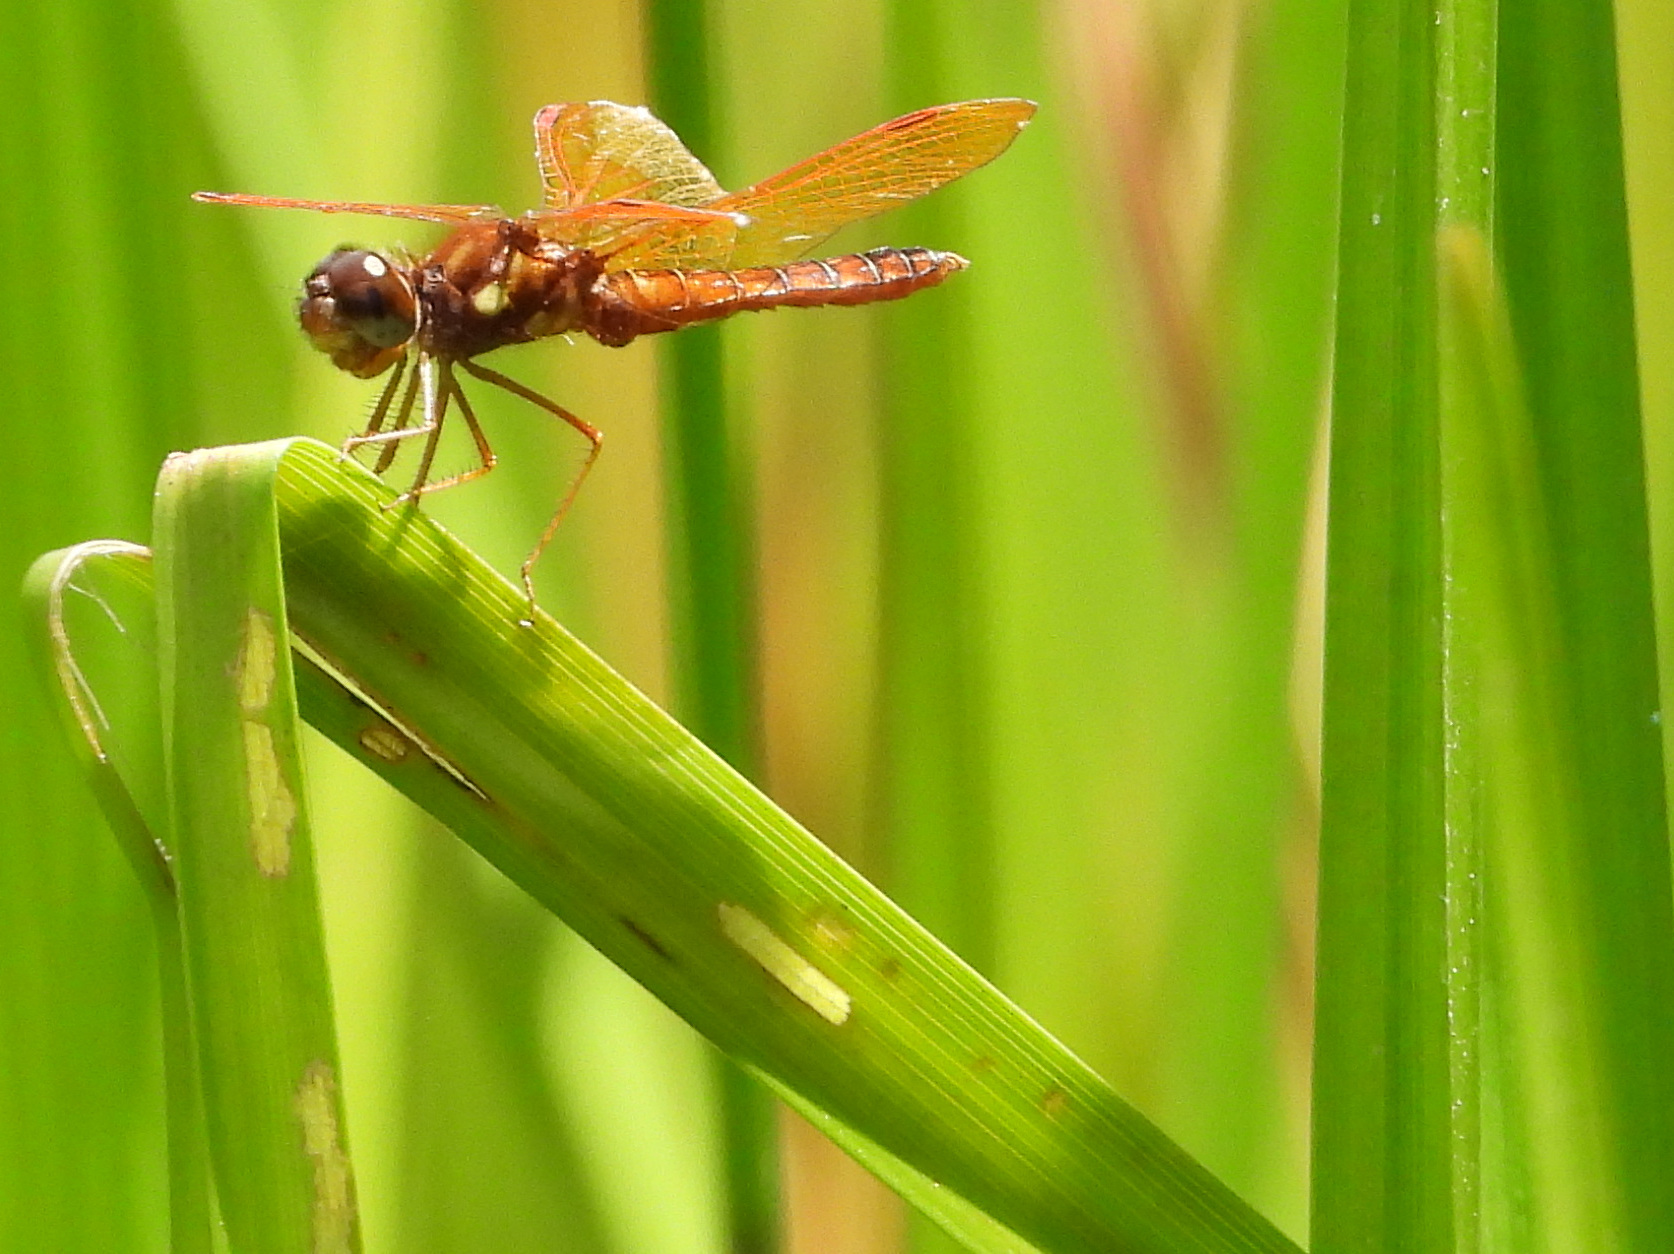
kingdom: Animalia
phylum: Arthropoda
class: Insecta
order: Odonata
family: Libellulidae
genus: Perithemis
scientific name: Perithemis tenera
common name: Eastern amberwing
